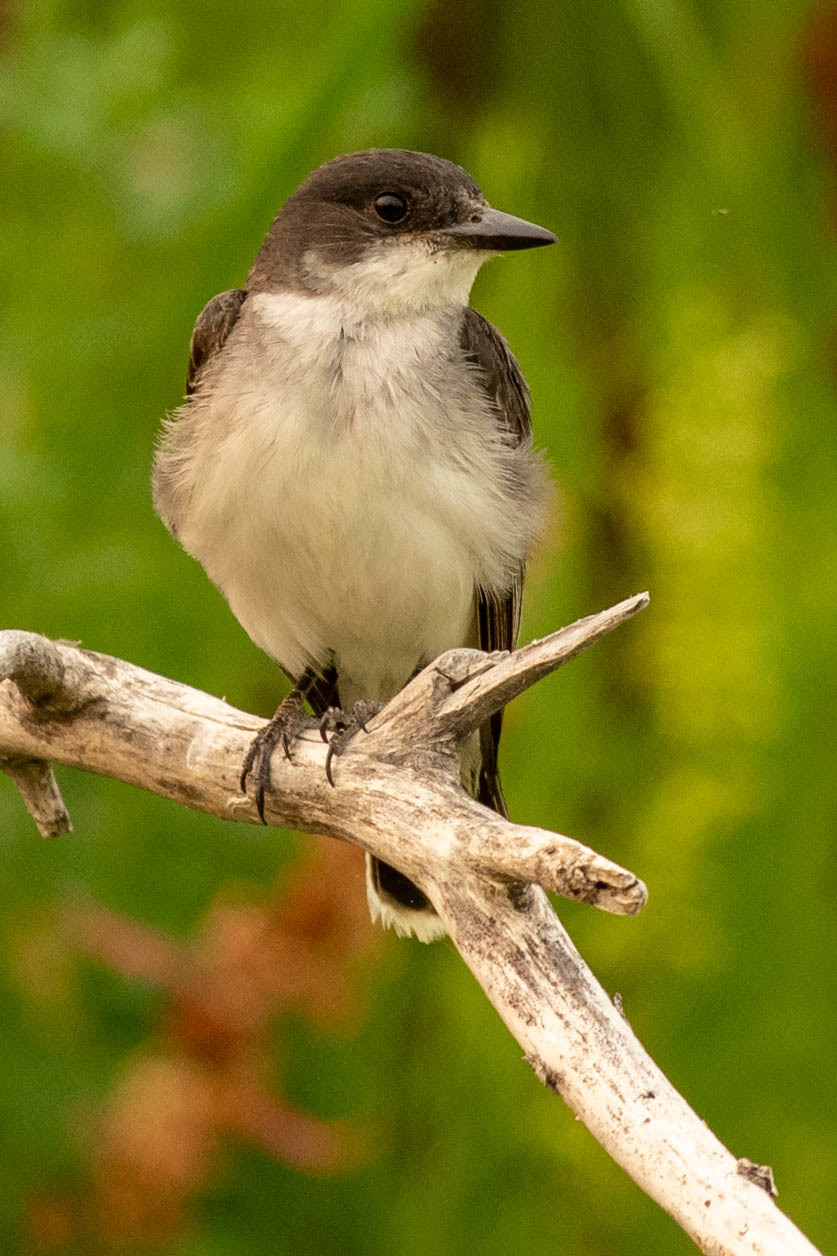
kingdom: Animalia
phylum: Chordata
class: Aves
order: Passeriformes
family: Tyrannidae
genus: Tyrannus
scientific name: Tyrannus tyrannus
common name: Eastern kingbird
